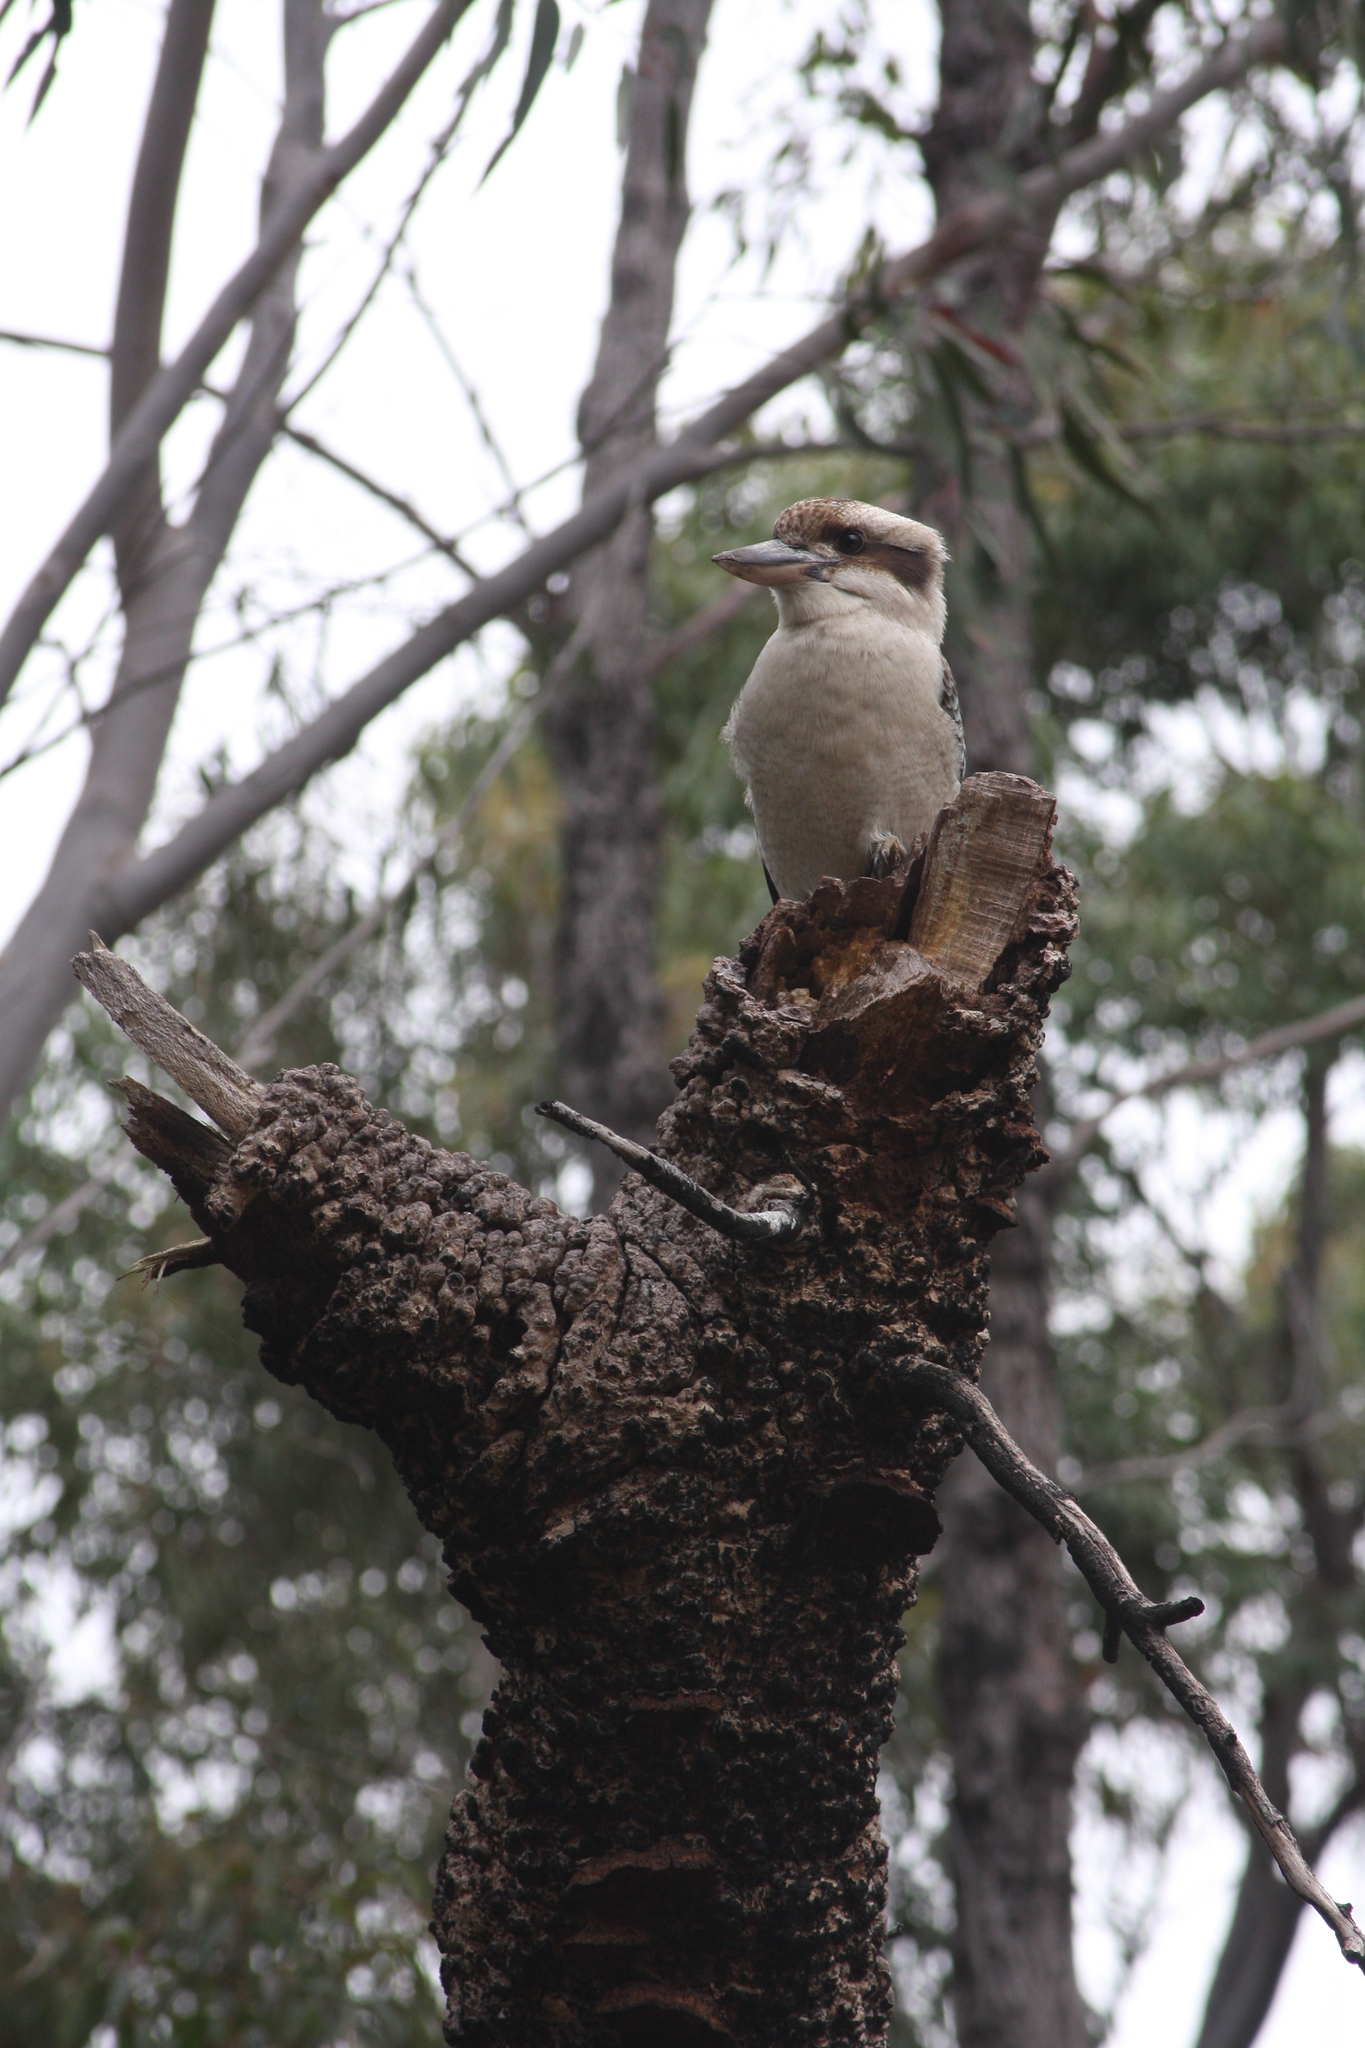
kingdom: Animalia
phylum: Chordata
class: Aves
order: Coraciiformes
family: Alcedinidae
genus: Dacelo
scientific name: Dacelo novaeguineae
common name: Laughing kookaburra
